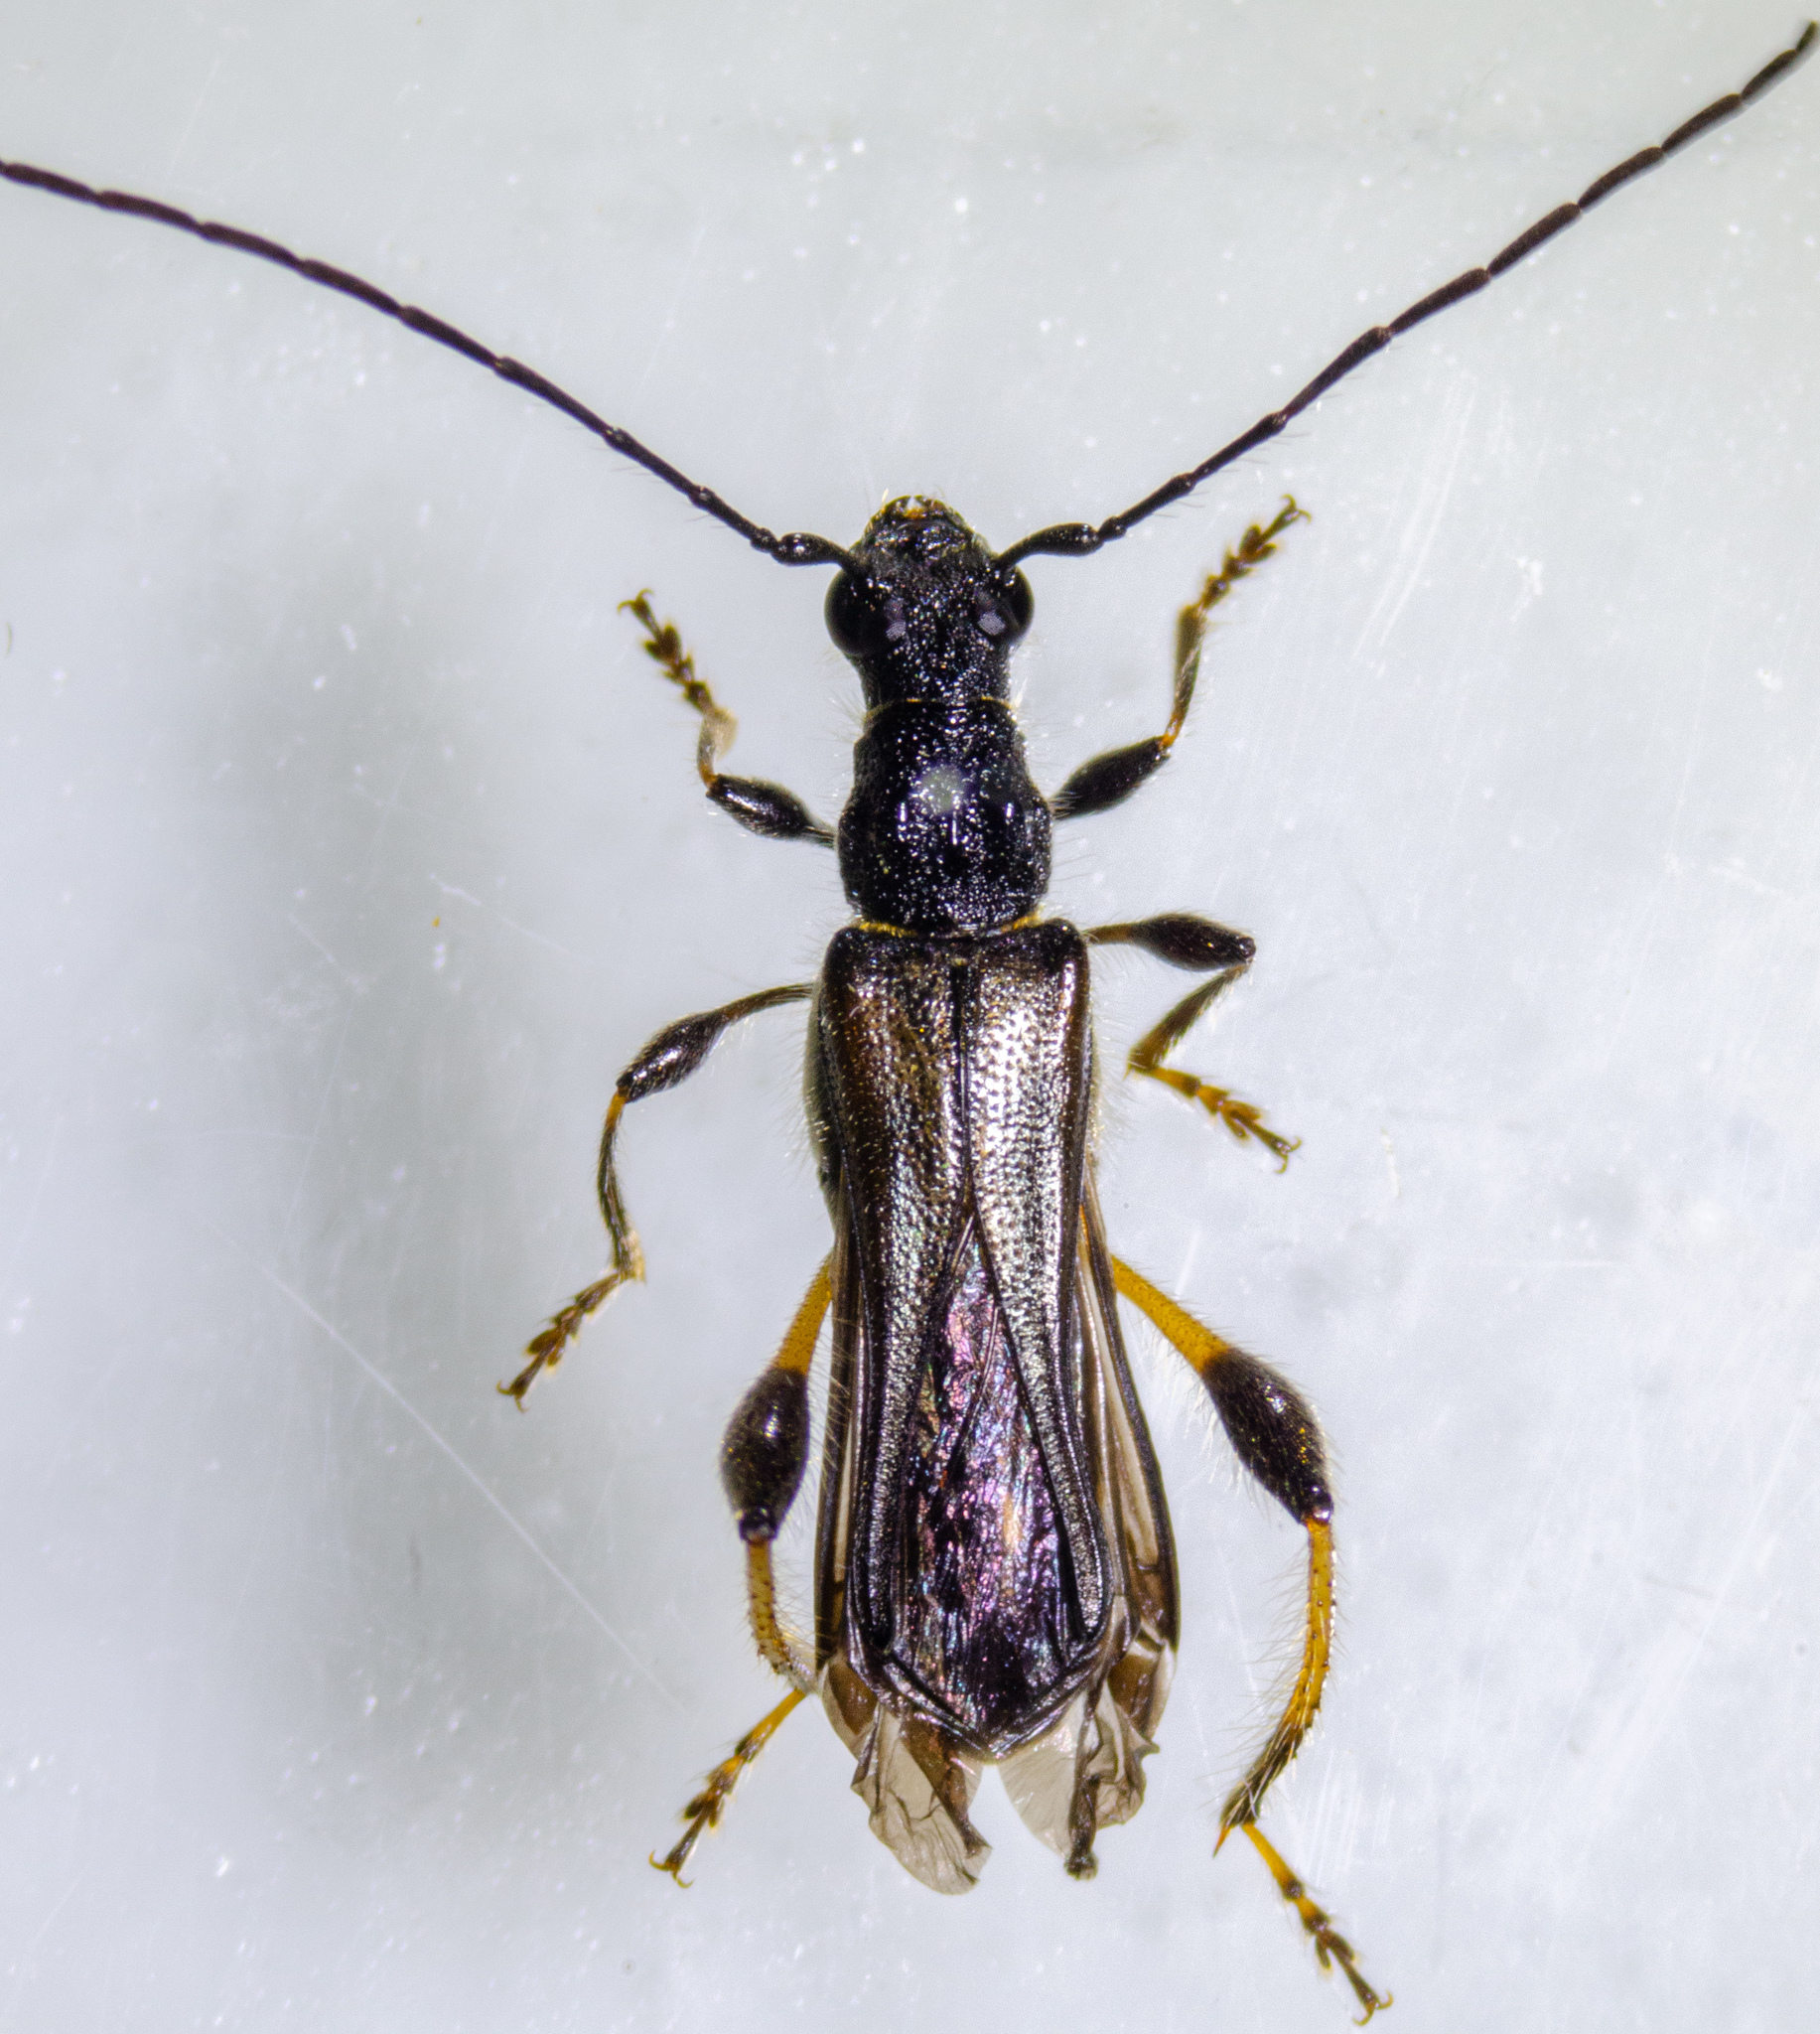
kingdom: Animalia
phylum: Arthropoda
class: Insecta
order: Coleoptera
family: Cerambycidae
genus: Callimoxys
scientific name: Callimoxys fuscipennis
